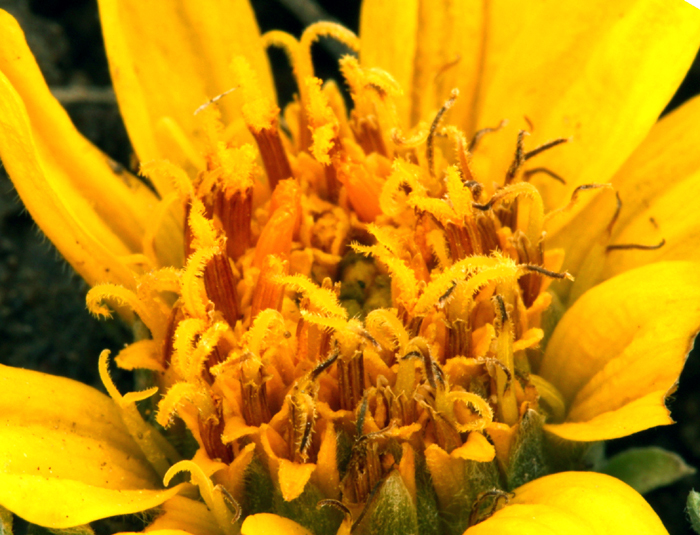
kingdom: Plantae
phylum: Tracheophyta
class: Magnoliopsida
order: Asterales
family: Asteraceae
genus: Balsamorhiza
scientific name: Balsamorhiza hookeri
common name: Hooker's balsamroot
